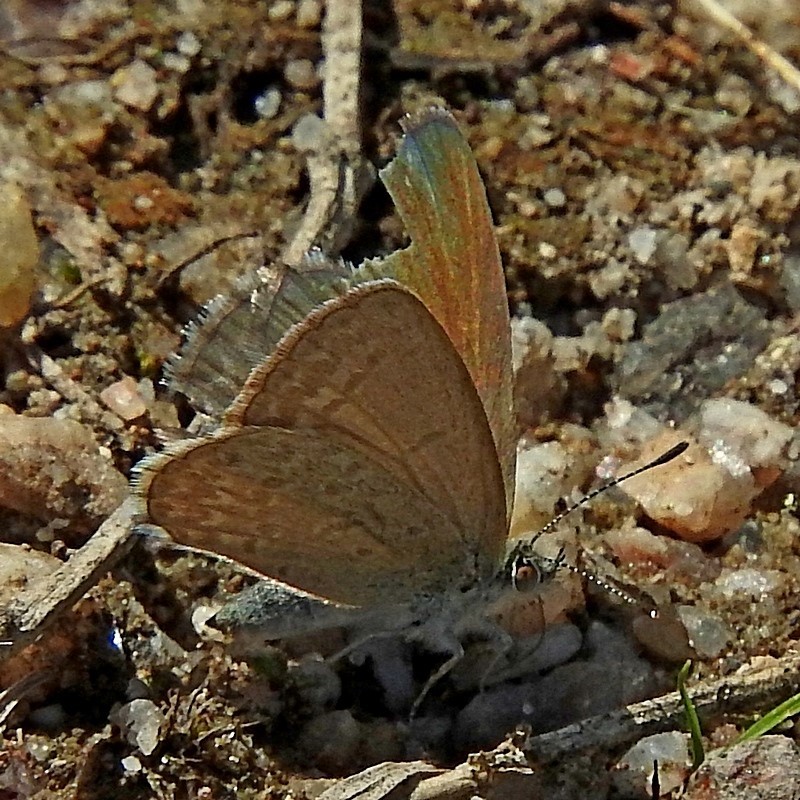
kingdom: Animalia
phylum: Arthropoda
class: Insecta
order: Lepidoptera
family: Lycaenidae
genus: Zizina
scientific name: Zizina labradus
